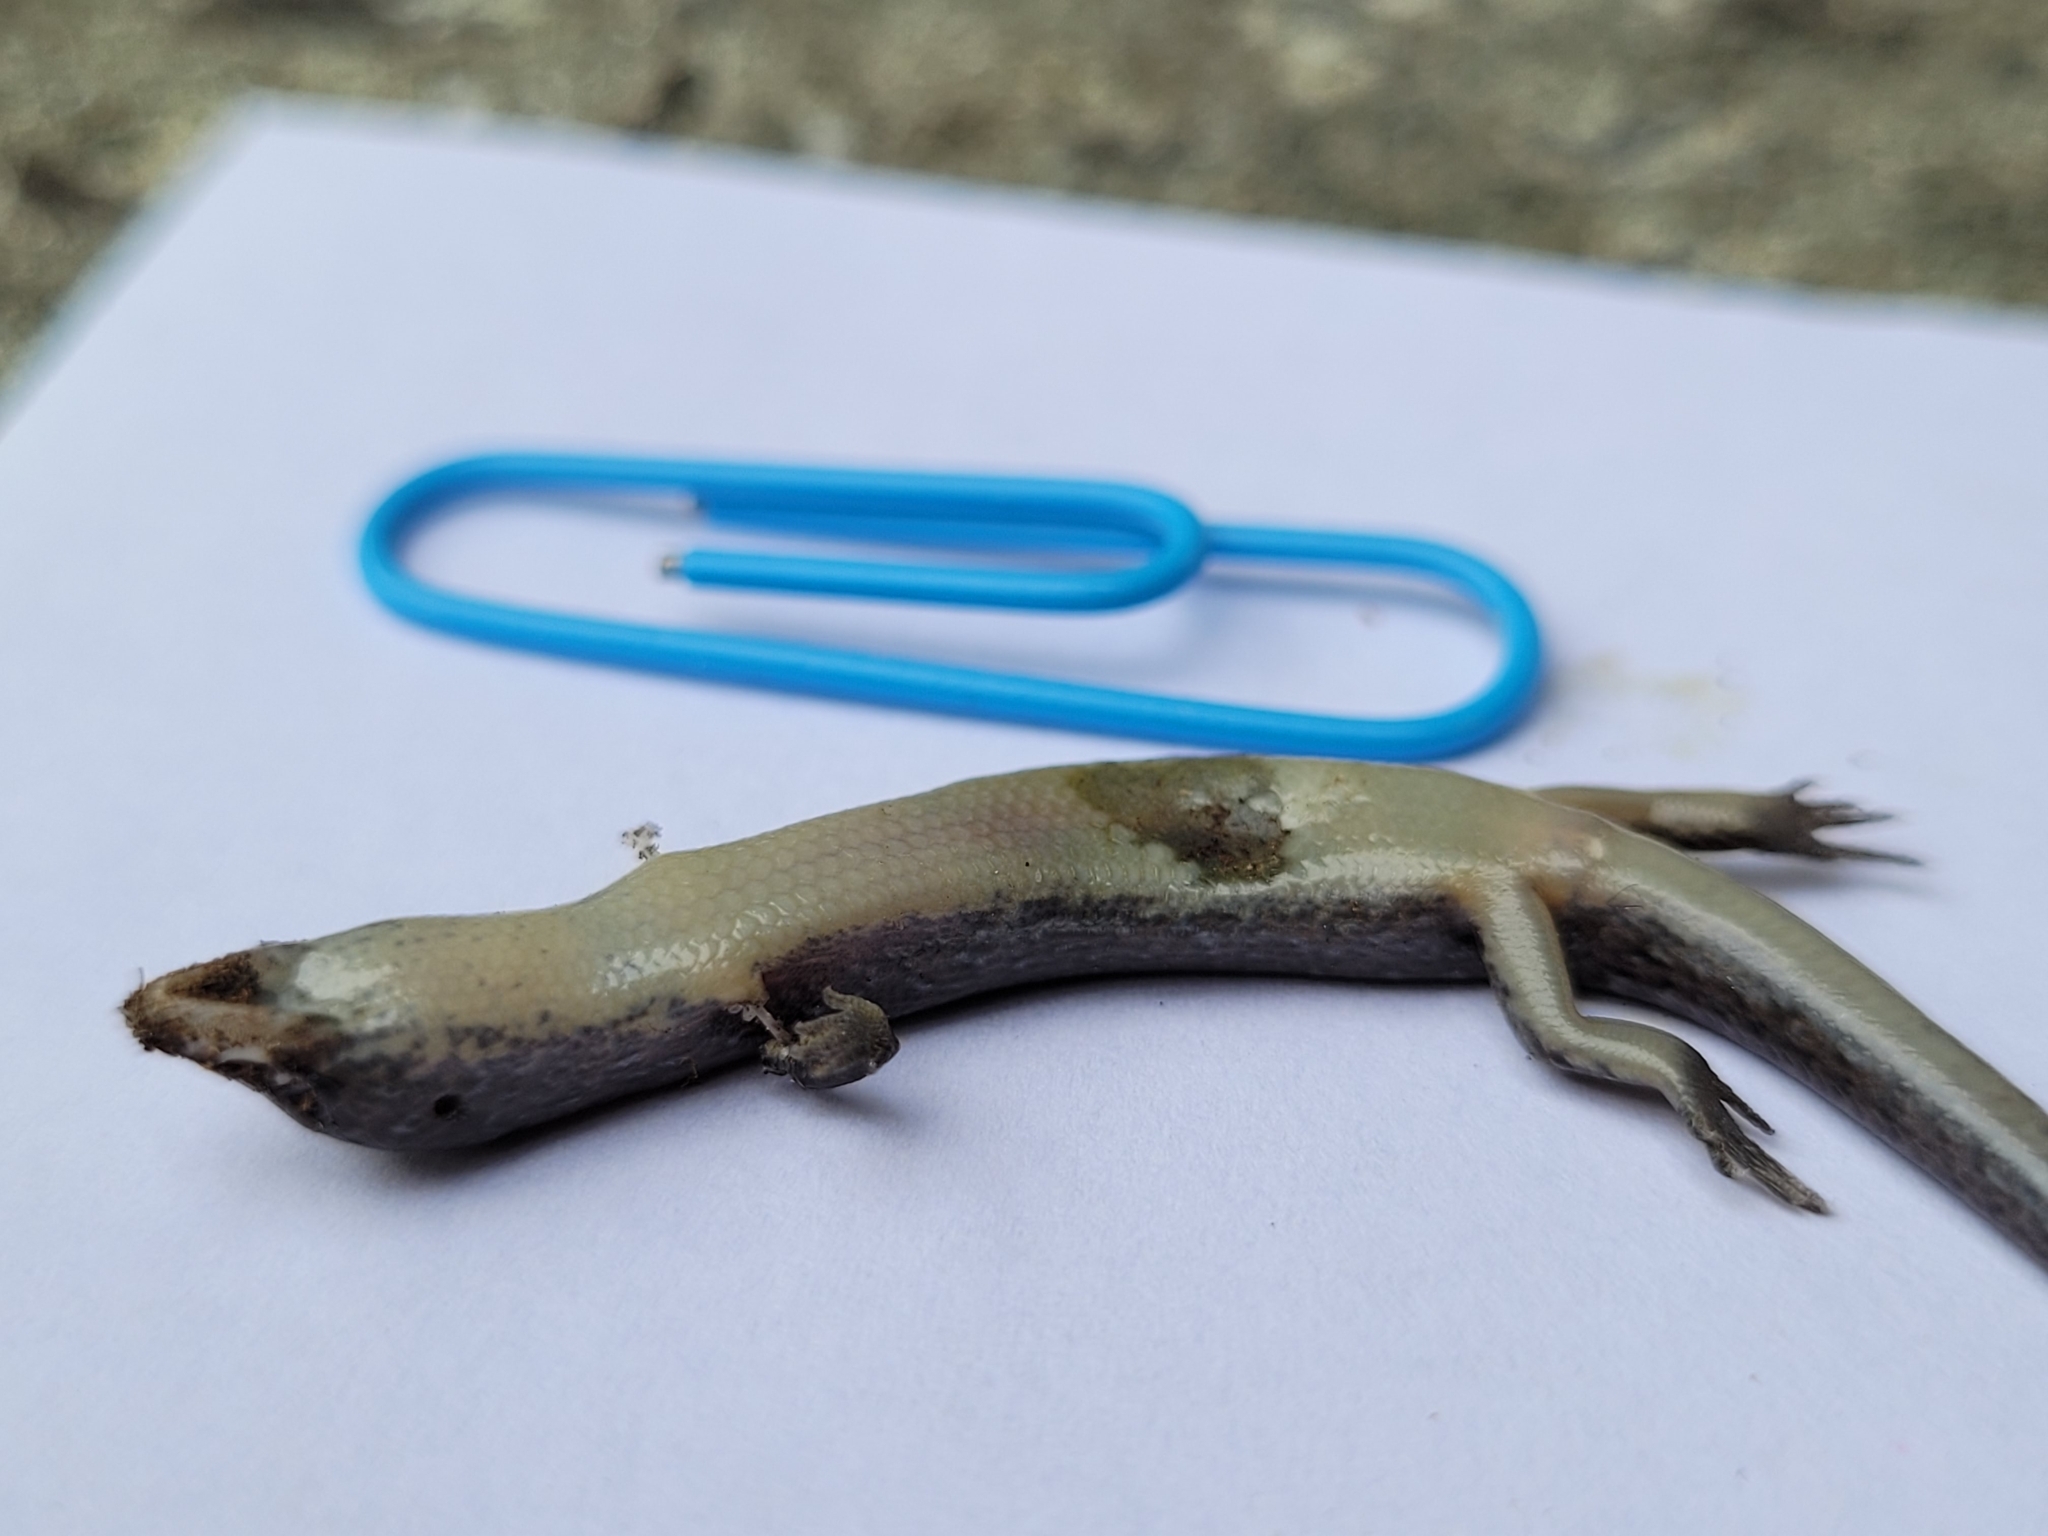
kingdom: Animalia
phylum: Chordata
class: Squamata
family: Scincidae
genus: Oligosoma
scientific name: Oligosoma aeneum
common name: Copper skink
